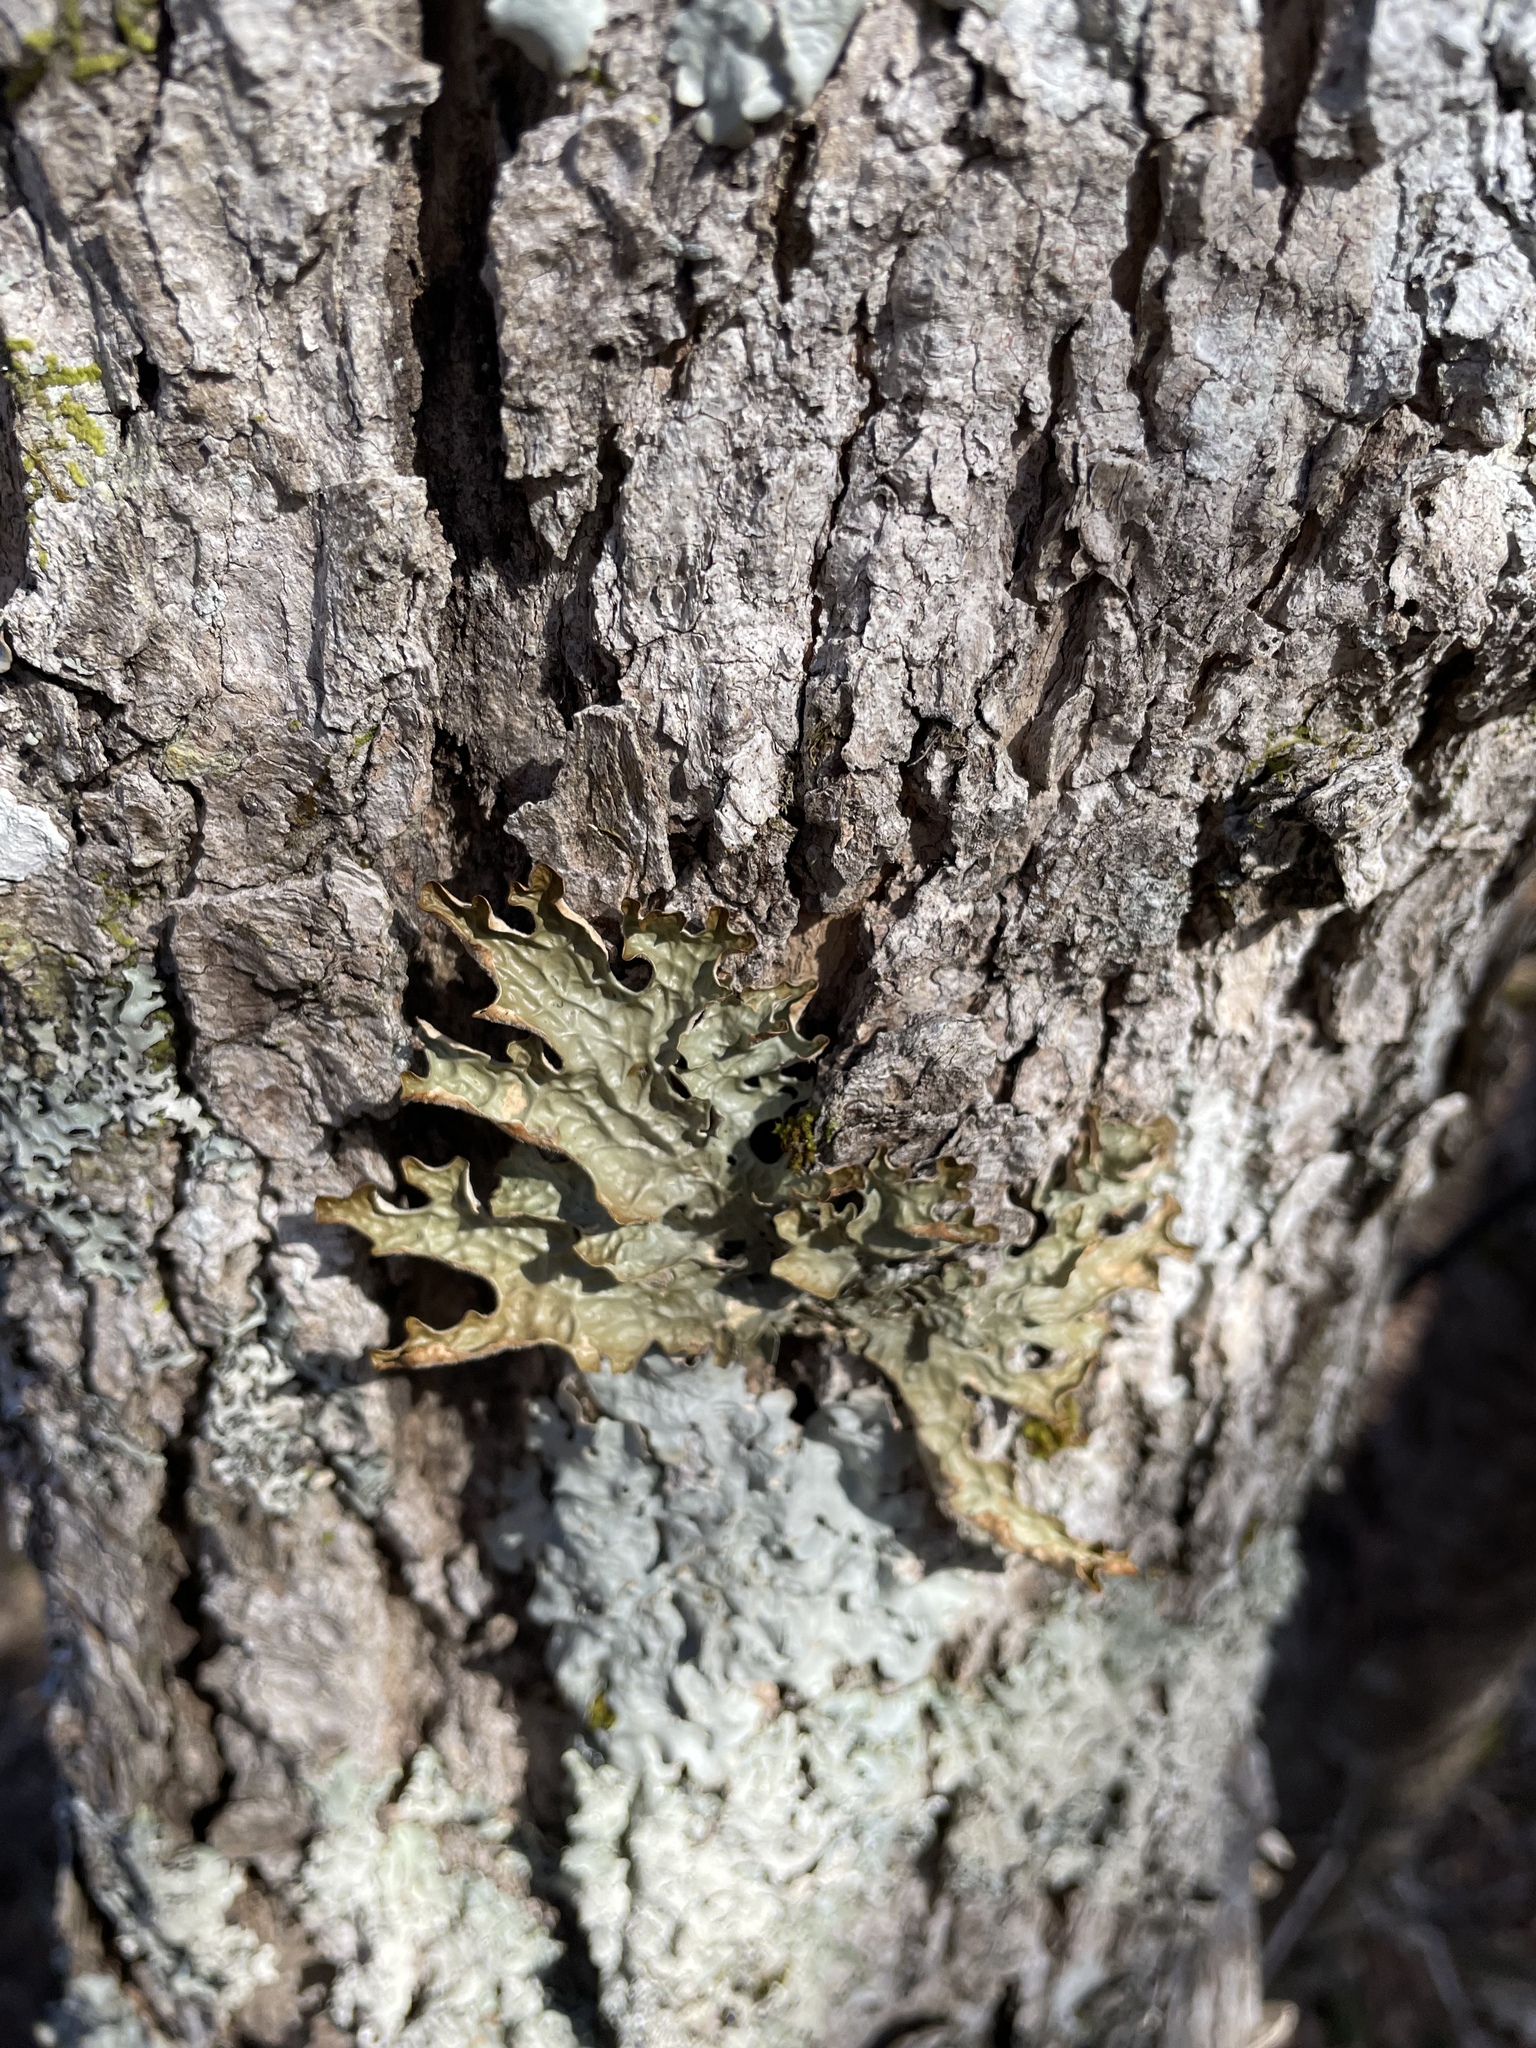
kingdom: Fungi
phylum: Ascomycota
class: Lecanoromycetes
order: Peltigerales
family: Lobariaceae
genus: Lobaria
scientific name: Lobaria pulmonaria
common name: Lungwort
